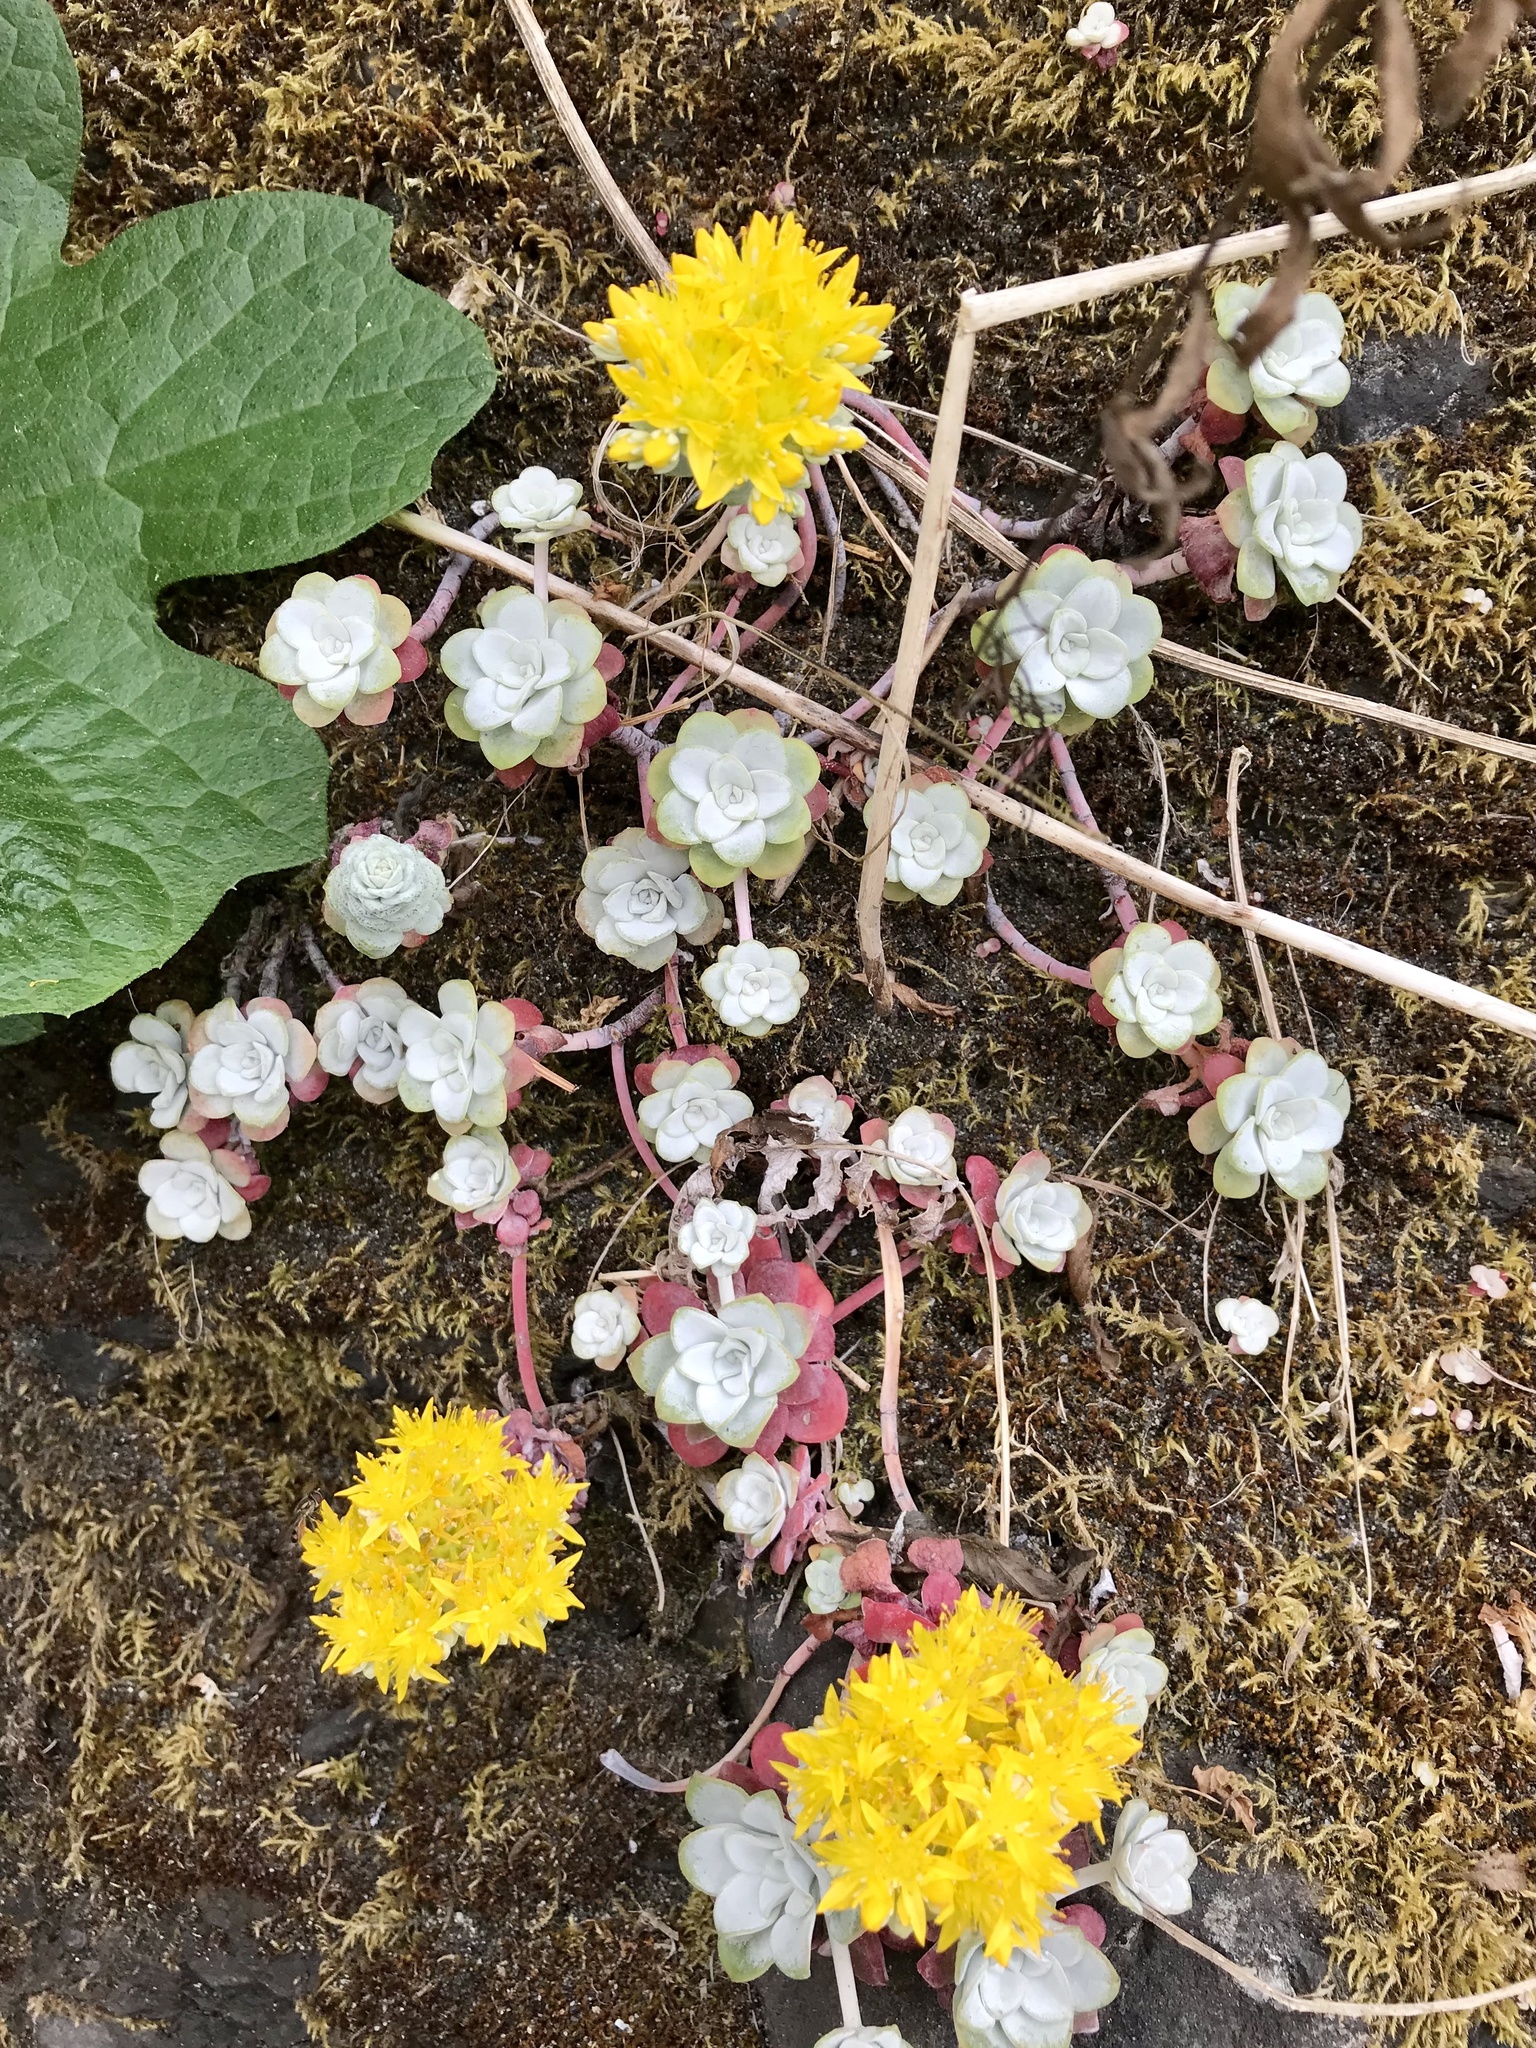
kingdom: Plantae
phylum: Tracheophyta
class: Magnoliopsida
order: Saxifragales
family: Crassulaceae
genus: Sedum
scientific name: Sedum spathulifolium
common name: Colorado stonecrop
